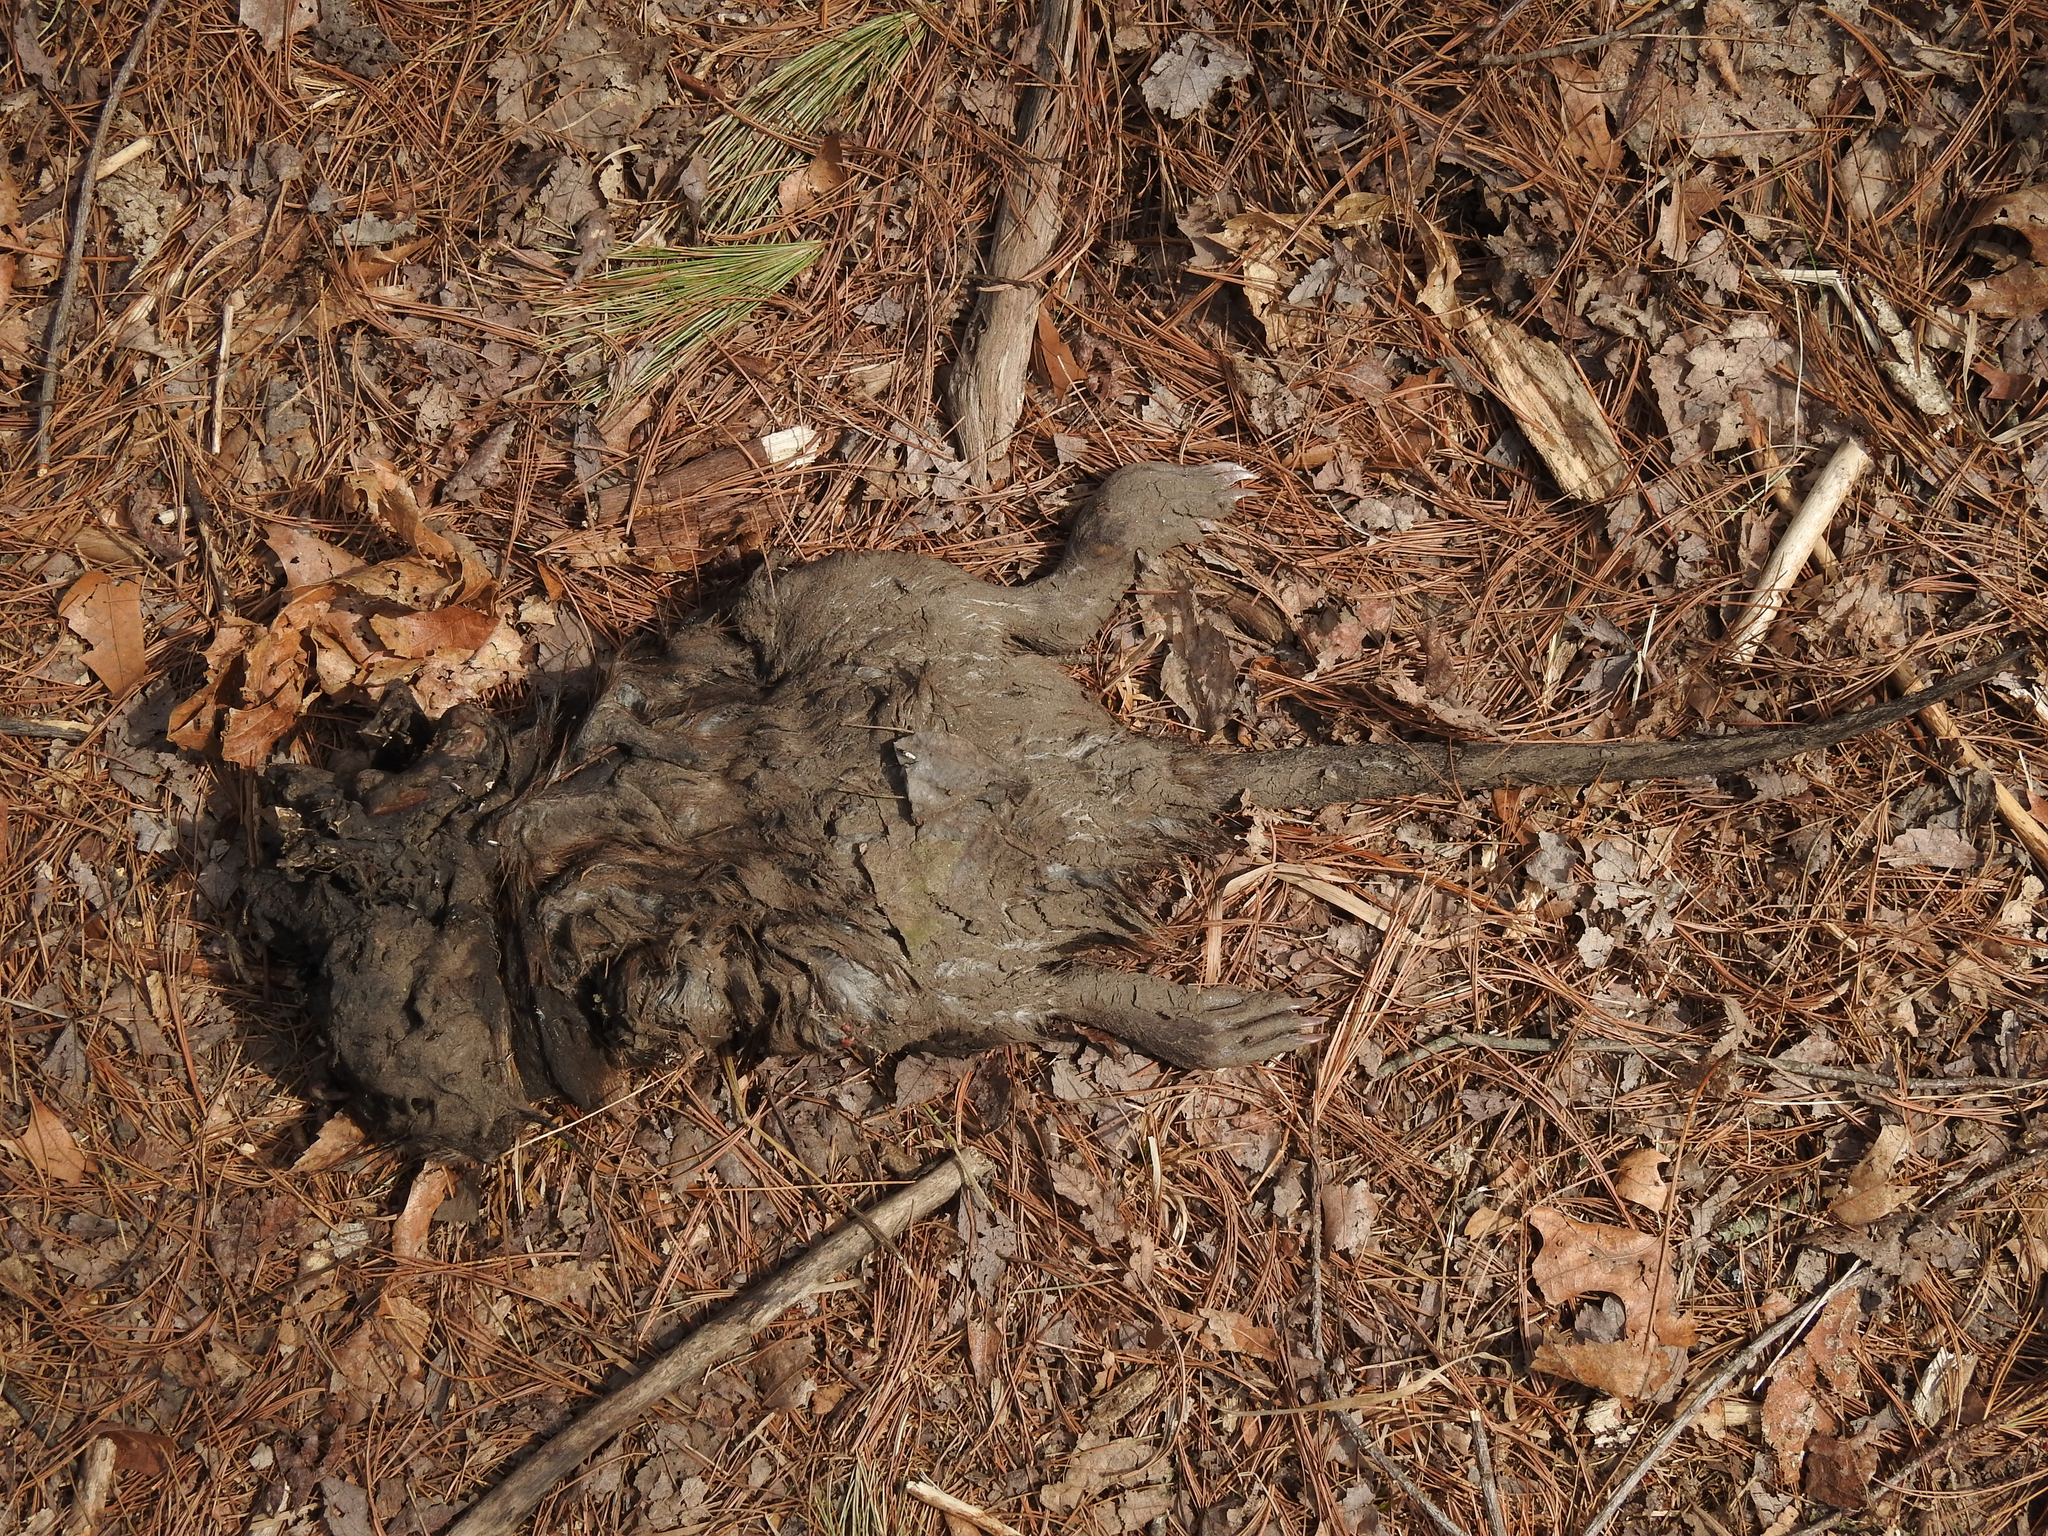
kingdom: Animalia
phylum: Chordata
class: Mammalia
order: Rodentia
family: Cricetidae
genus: Ondatra
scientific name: Ondatra zibethicus
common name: Muskrat
